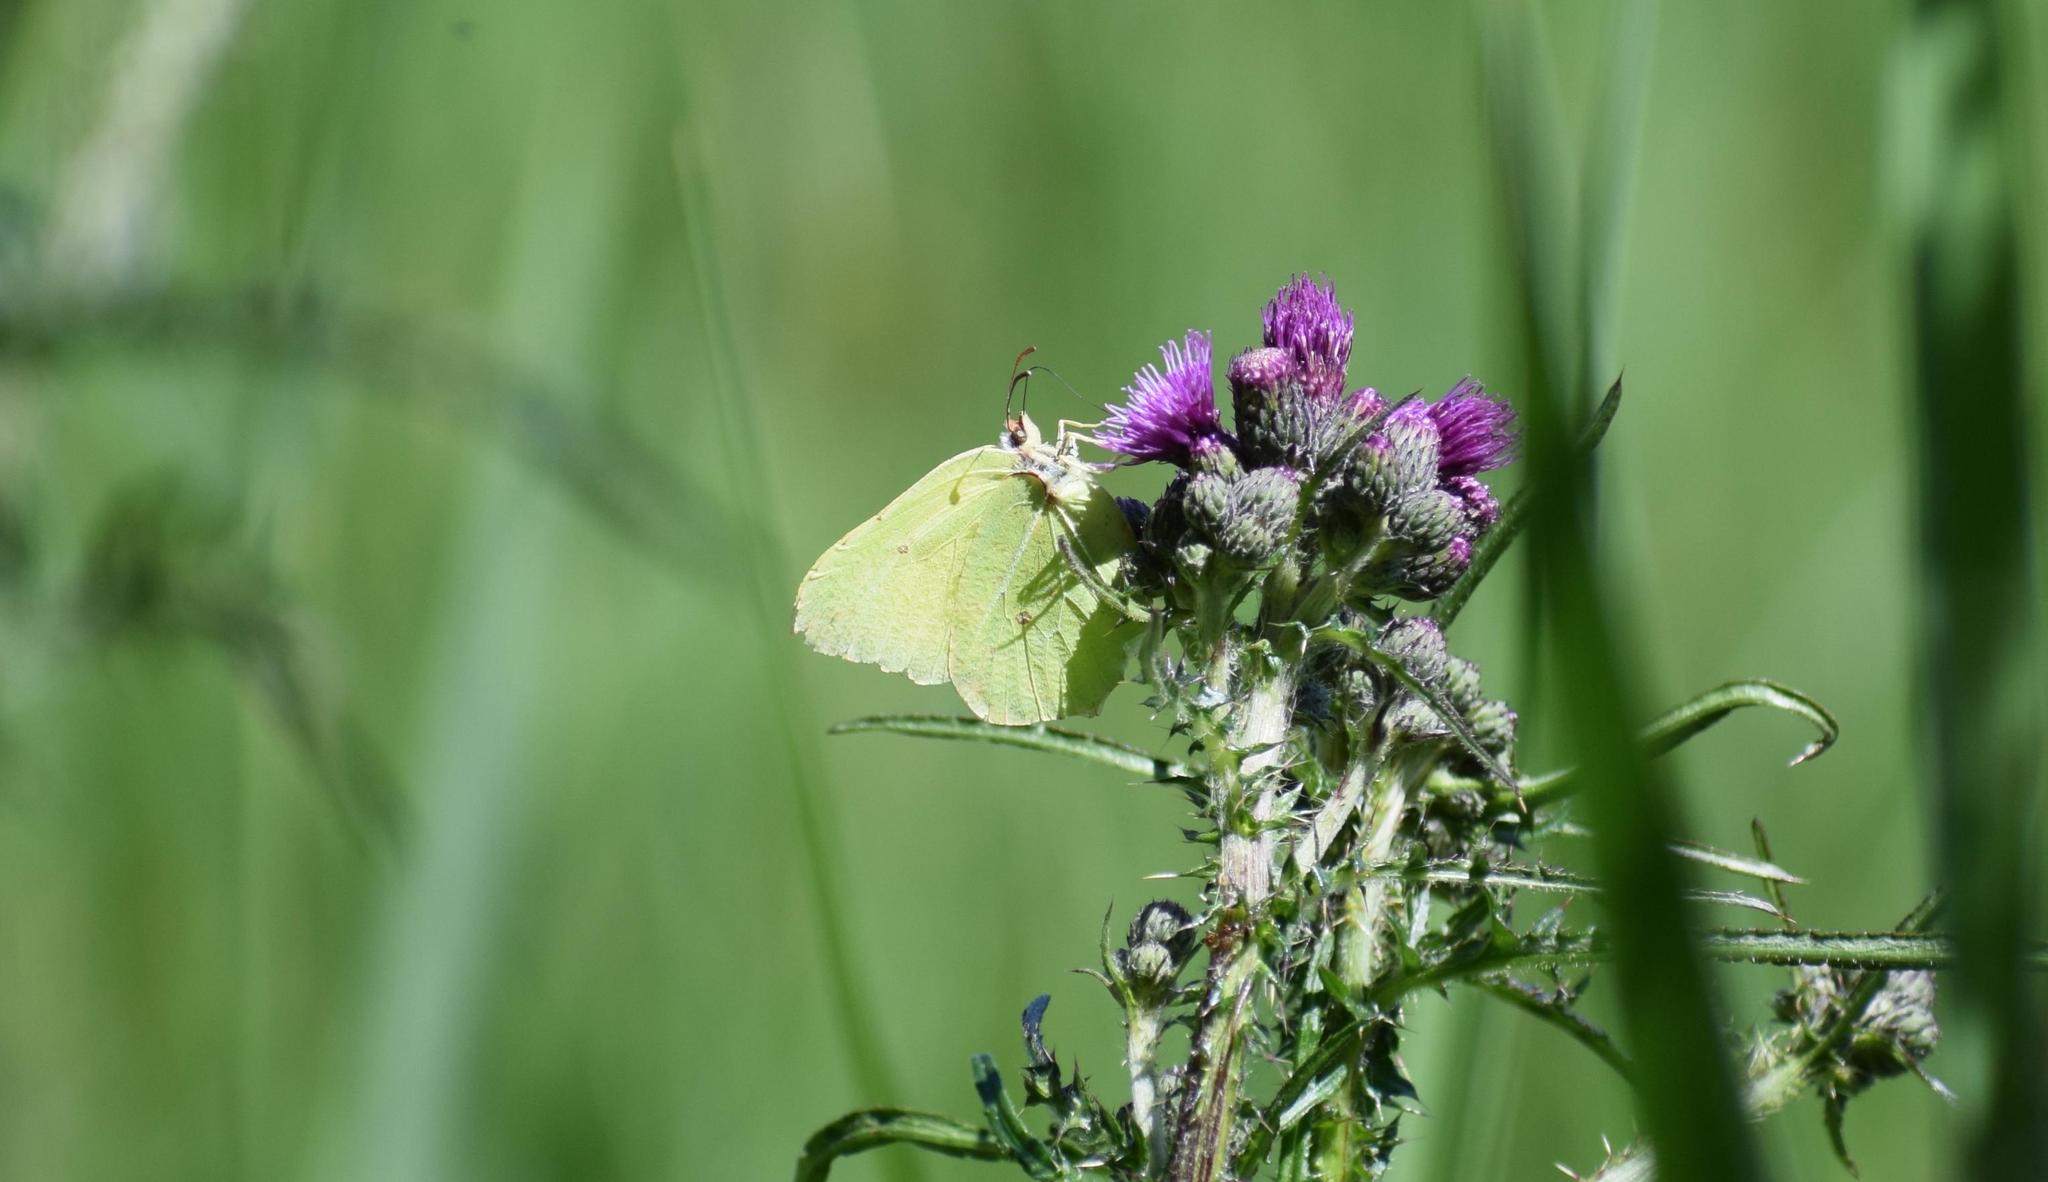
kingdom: Animalia
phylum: Arthropoda
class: Insecta
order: Lepidoptera
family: Pieridae
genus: Gonepteryx
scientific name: Gonepteryx rhamni
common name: Brimstone
